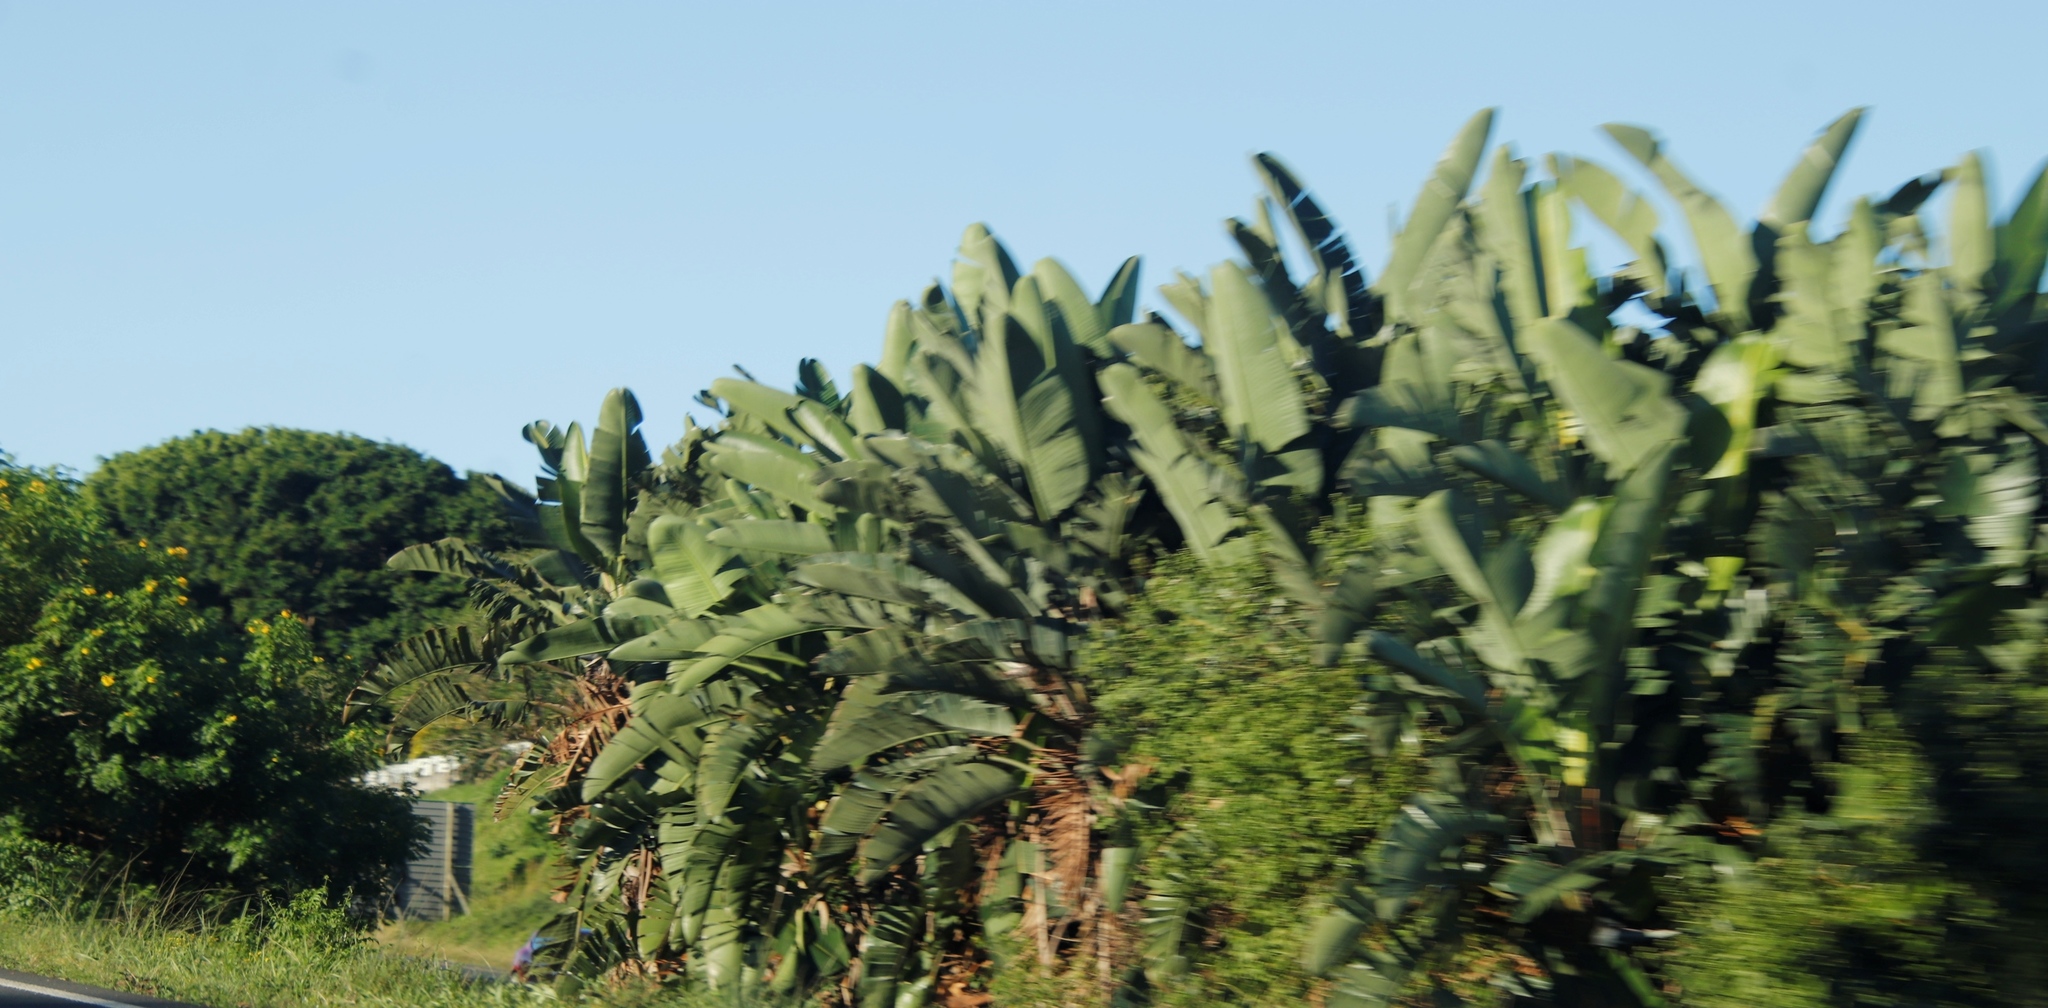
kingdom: Plantae
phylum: Tracheophyta
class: Liliopsida
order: Zingiberales
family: Strelitziaceae
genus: Strelitzia
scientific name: Strelitzia nicolai
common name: Bird-of-paradise tree
